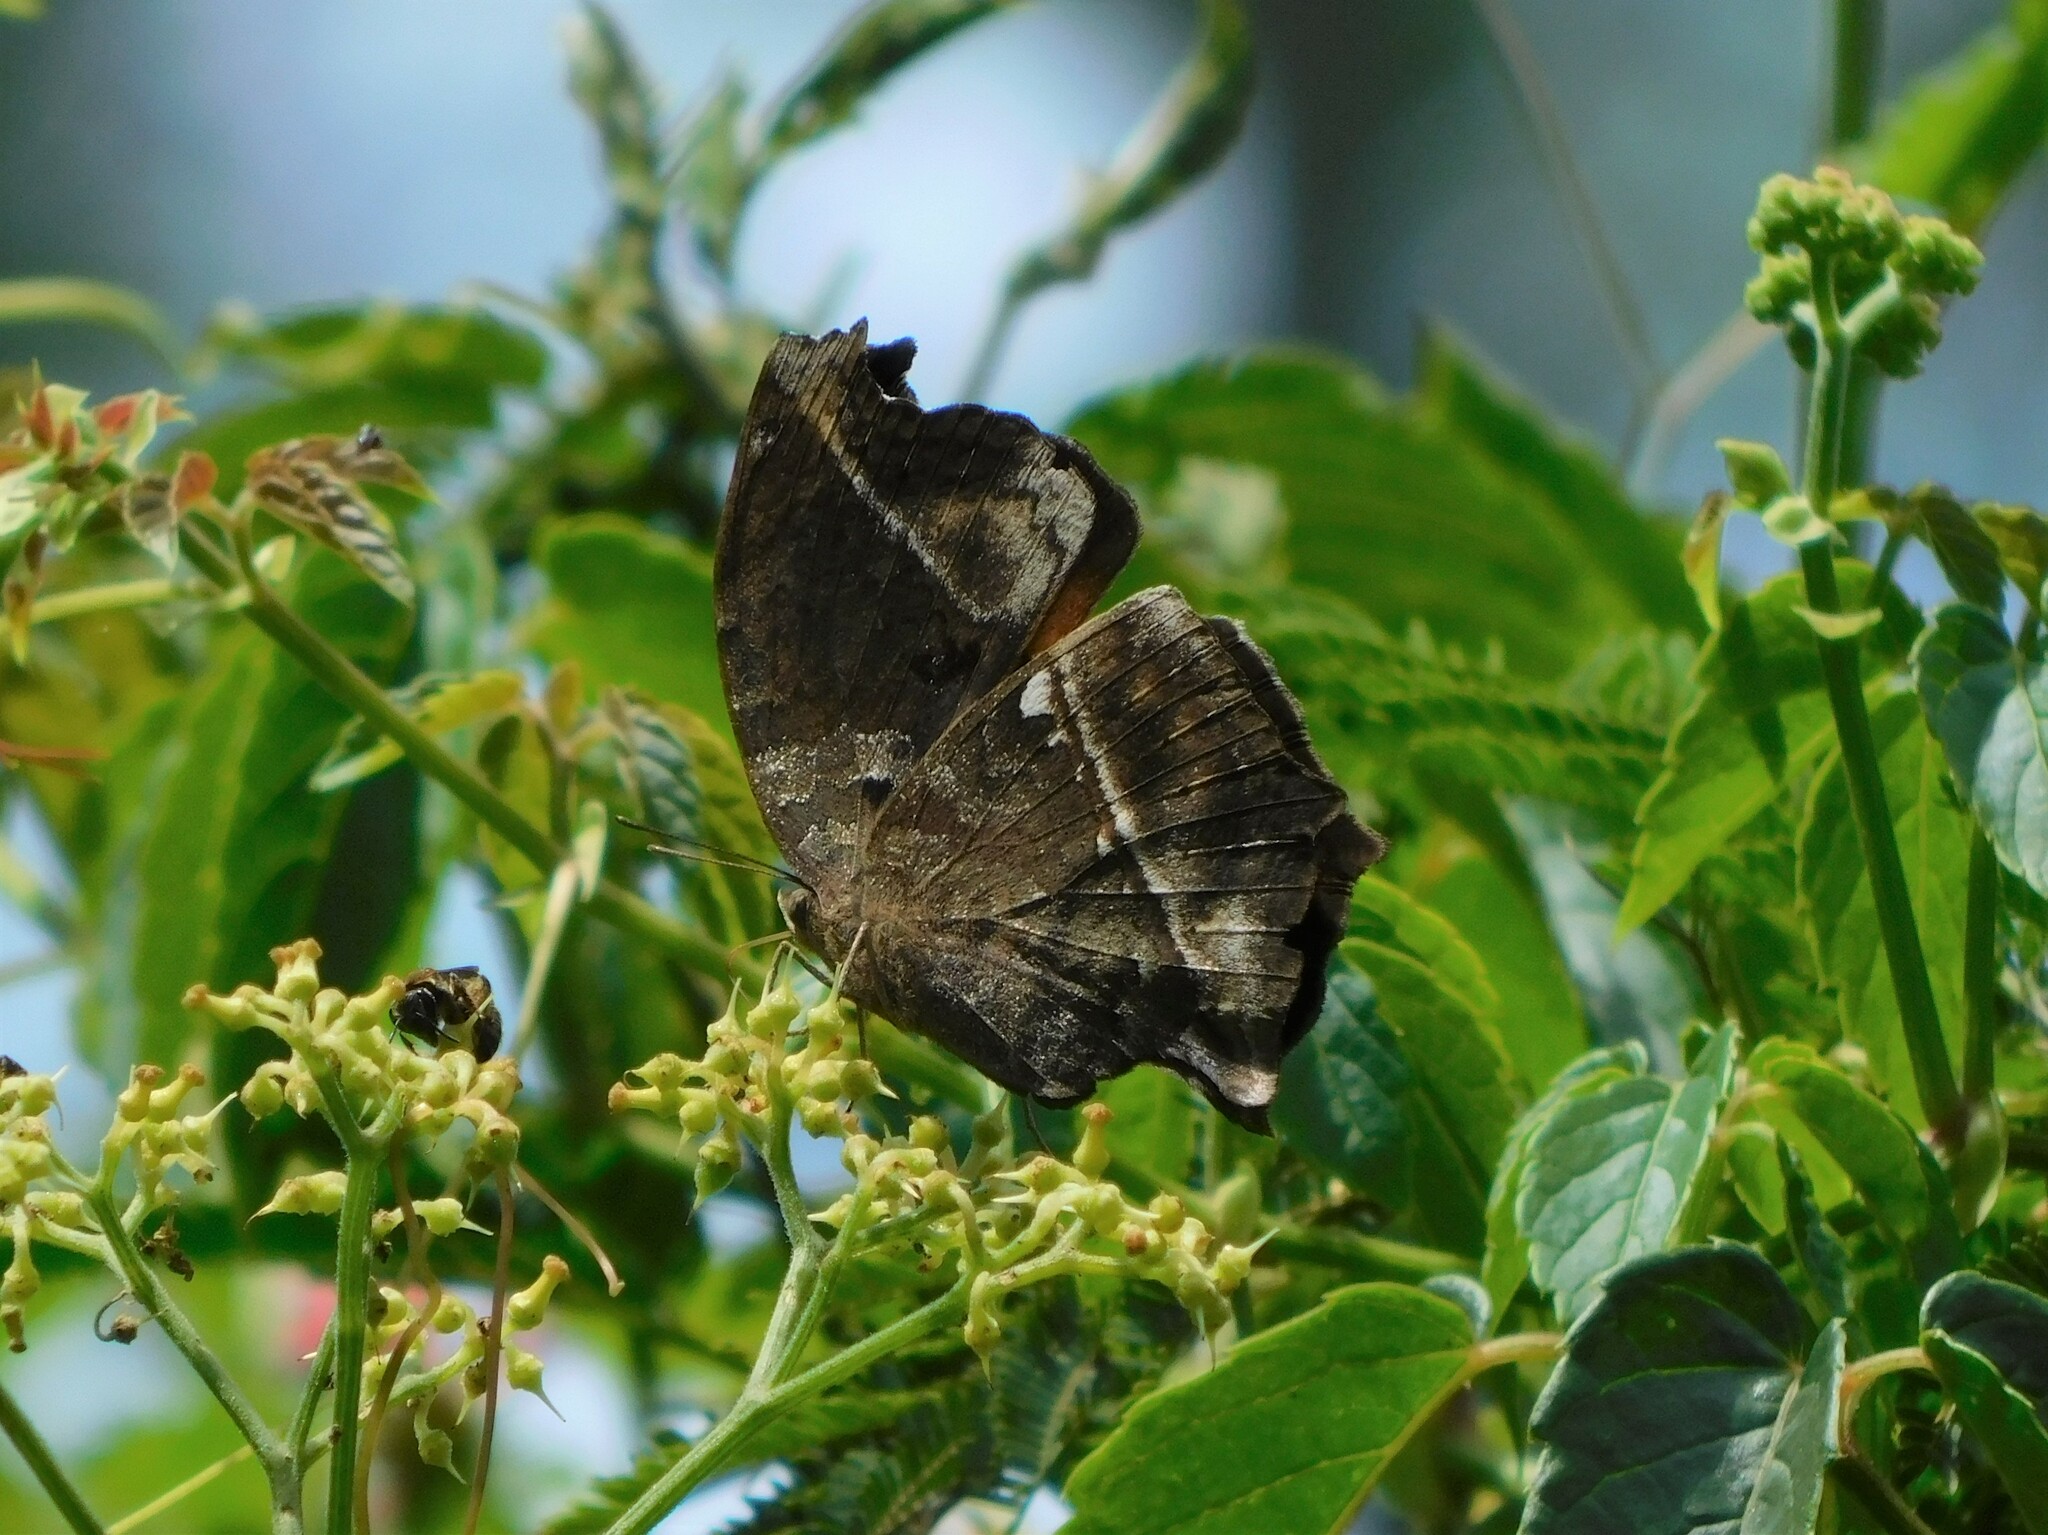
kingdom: Animalia
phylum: Arthropoda
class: Insecta
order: Lepidoptera
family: Nymphalidae
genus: Salamis
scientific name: Salamis cacta
